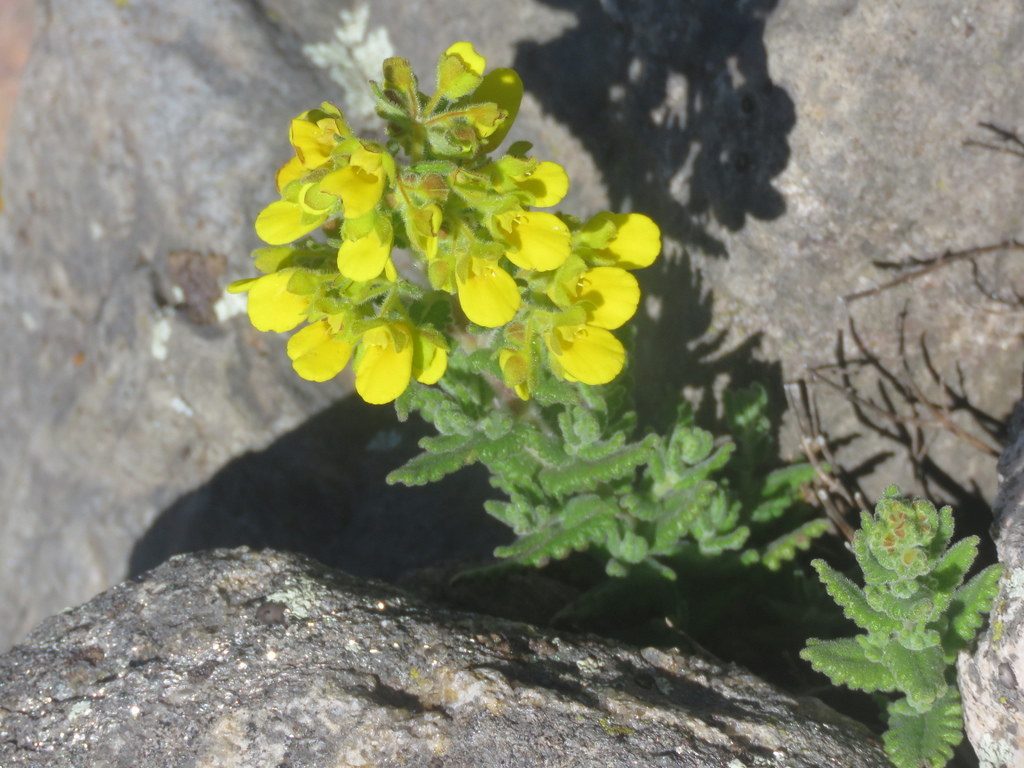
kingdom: Plantae
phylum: Tracheophyta
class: Magnoliopsida
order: Lamiales
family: Calceolariaceae
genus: Calceolaria
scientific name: Calceolaria santolinoides
